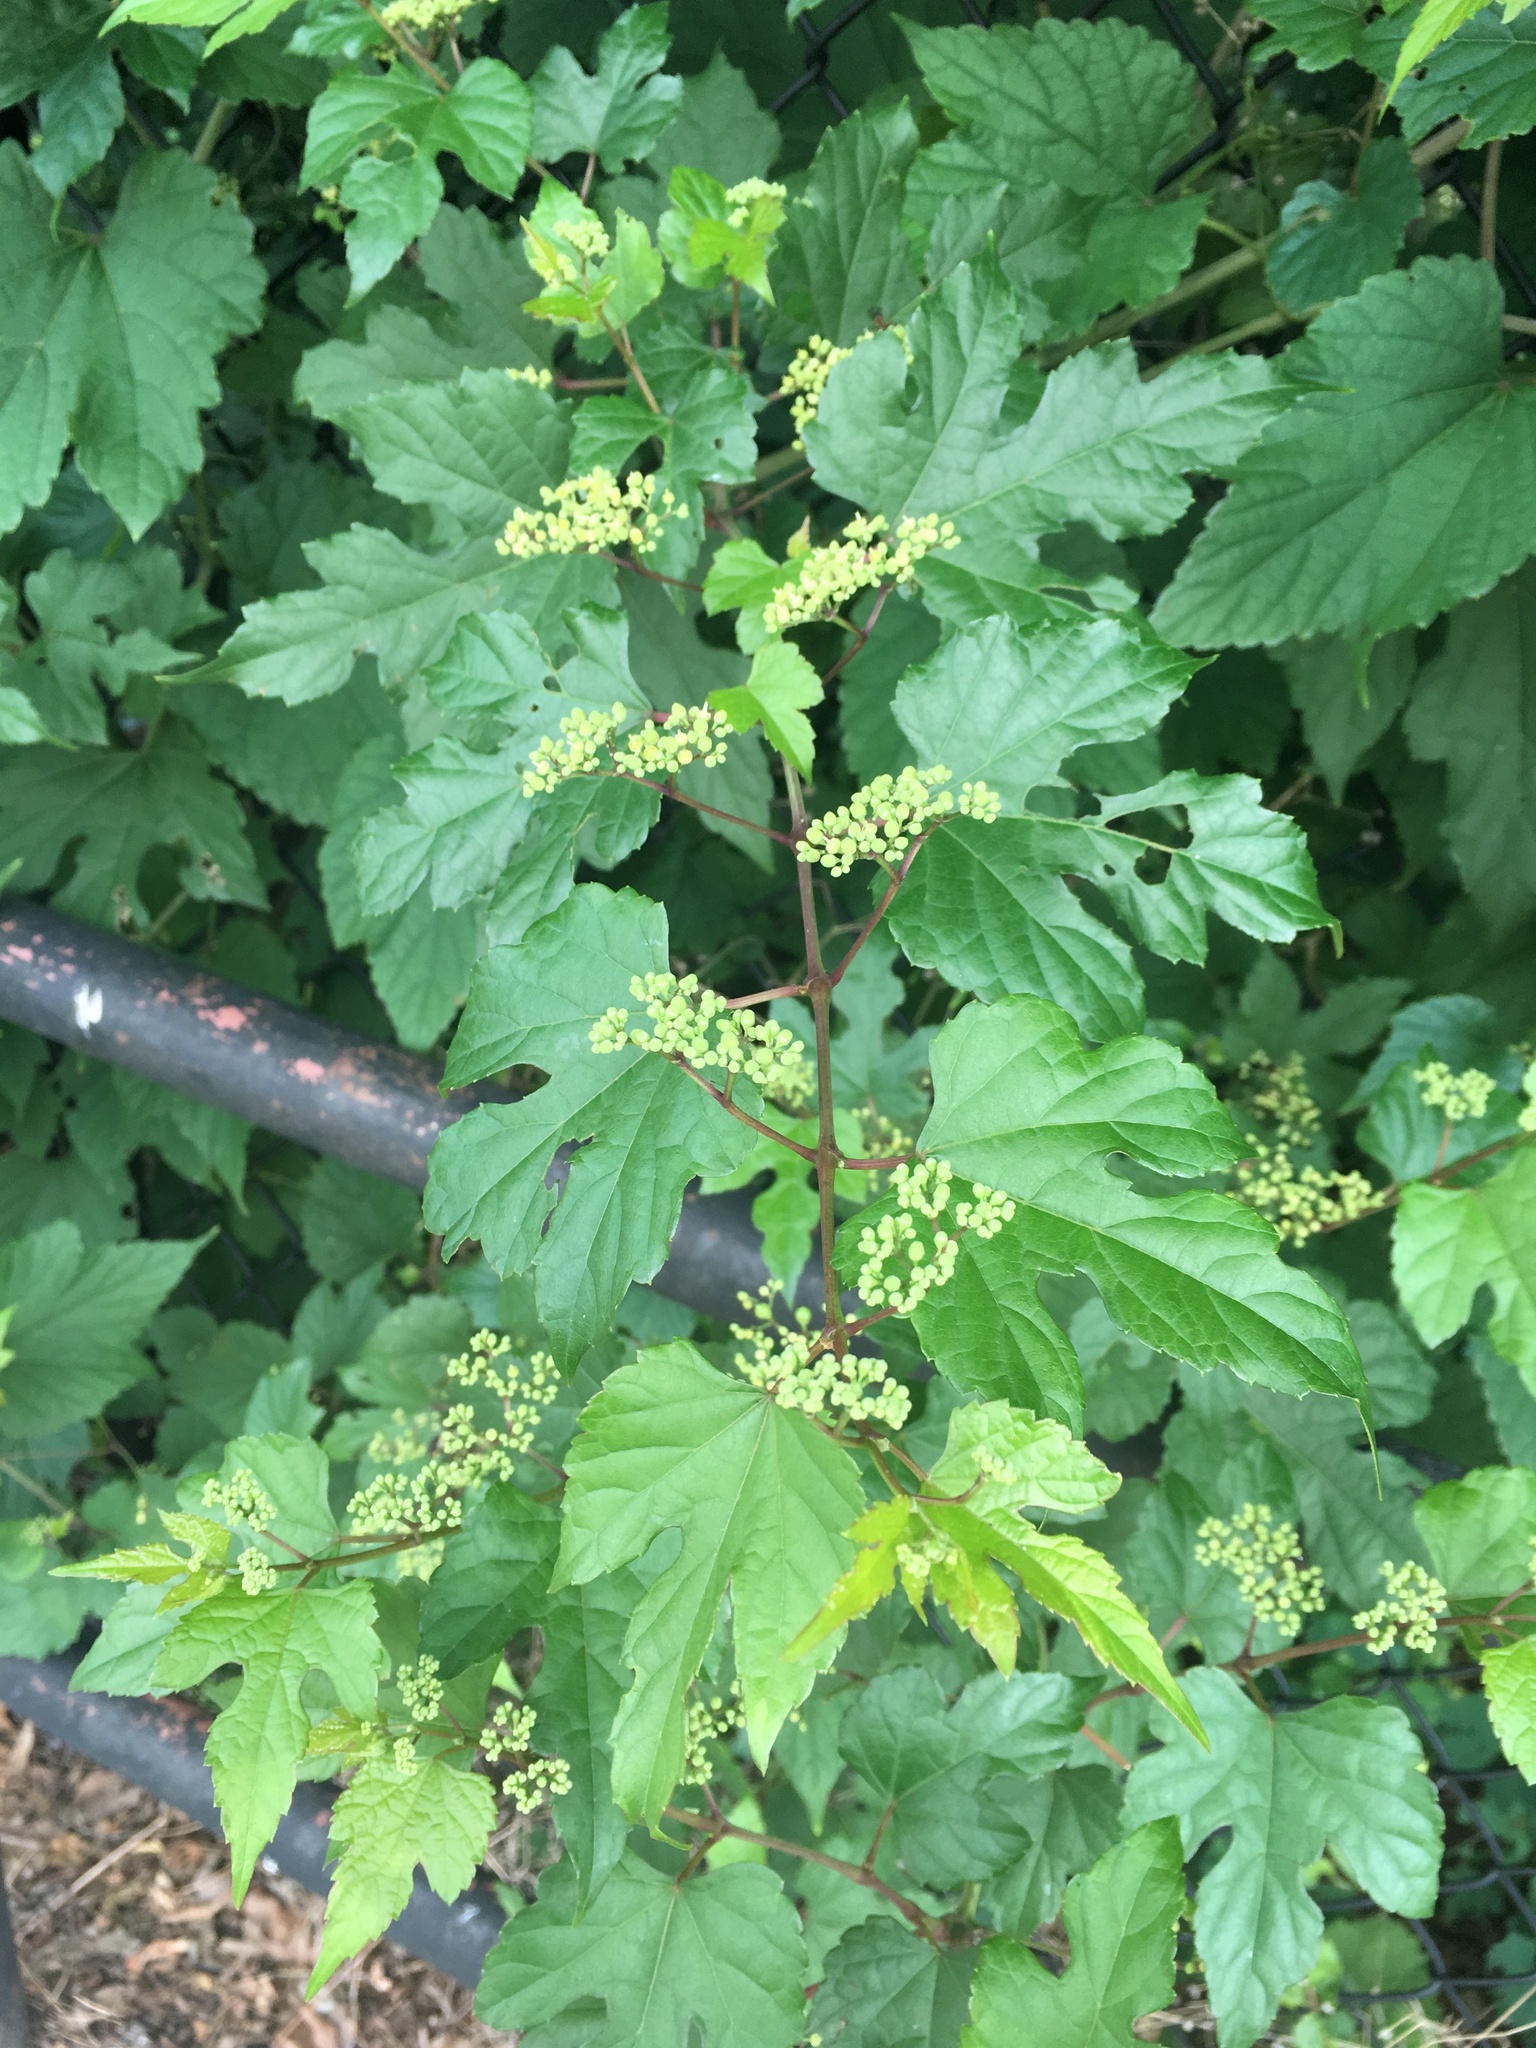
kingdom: Plantae
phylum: Tracheophyta
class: Magnoliopsida
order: Vitales
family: Vitaceae
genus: Ampelopsis
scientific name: Ampelopsis glandulosa
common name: Amur peppervine
